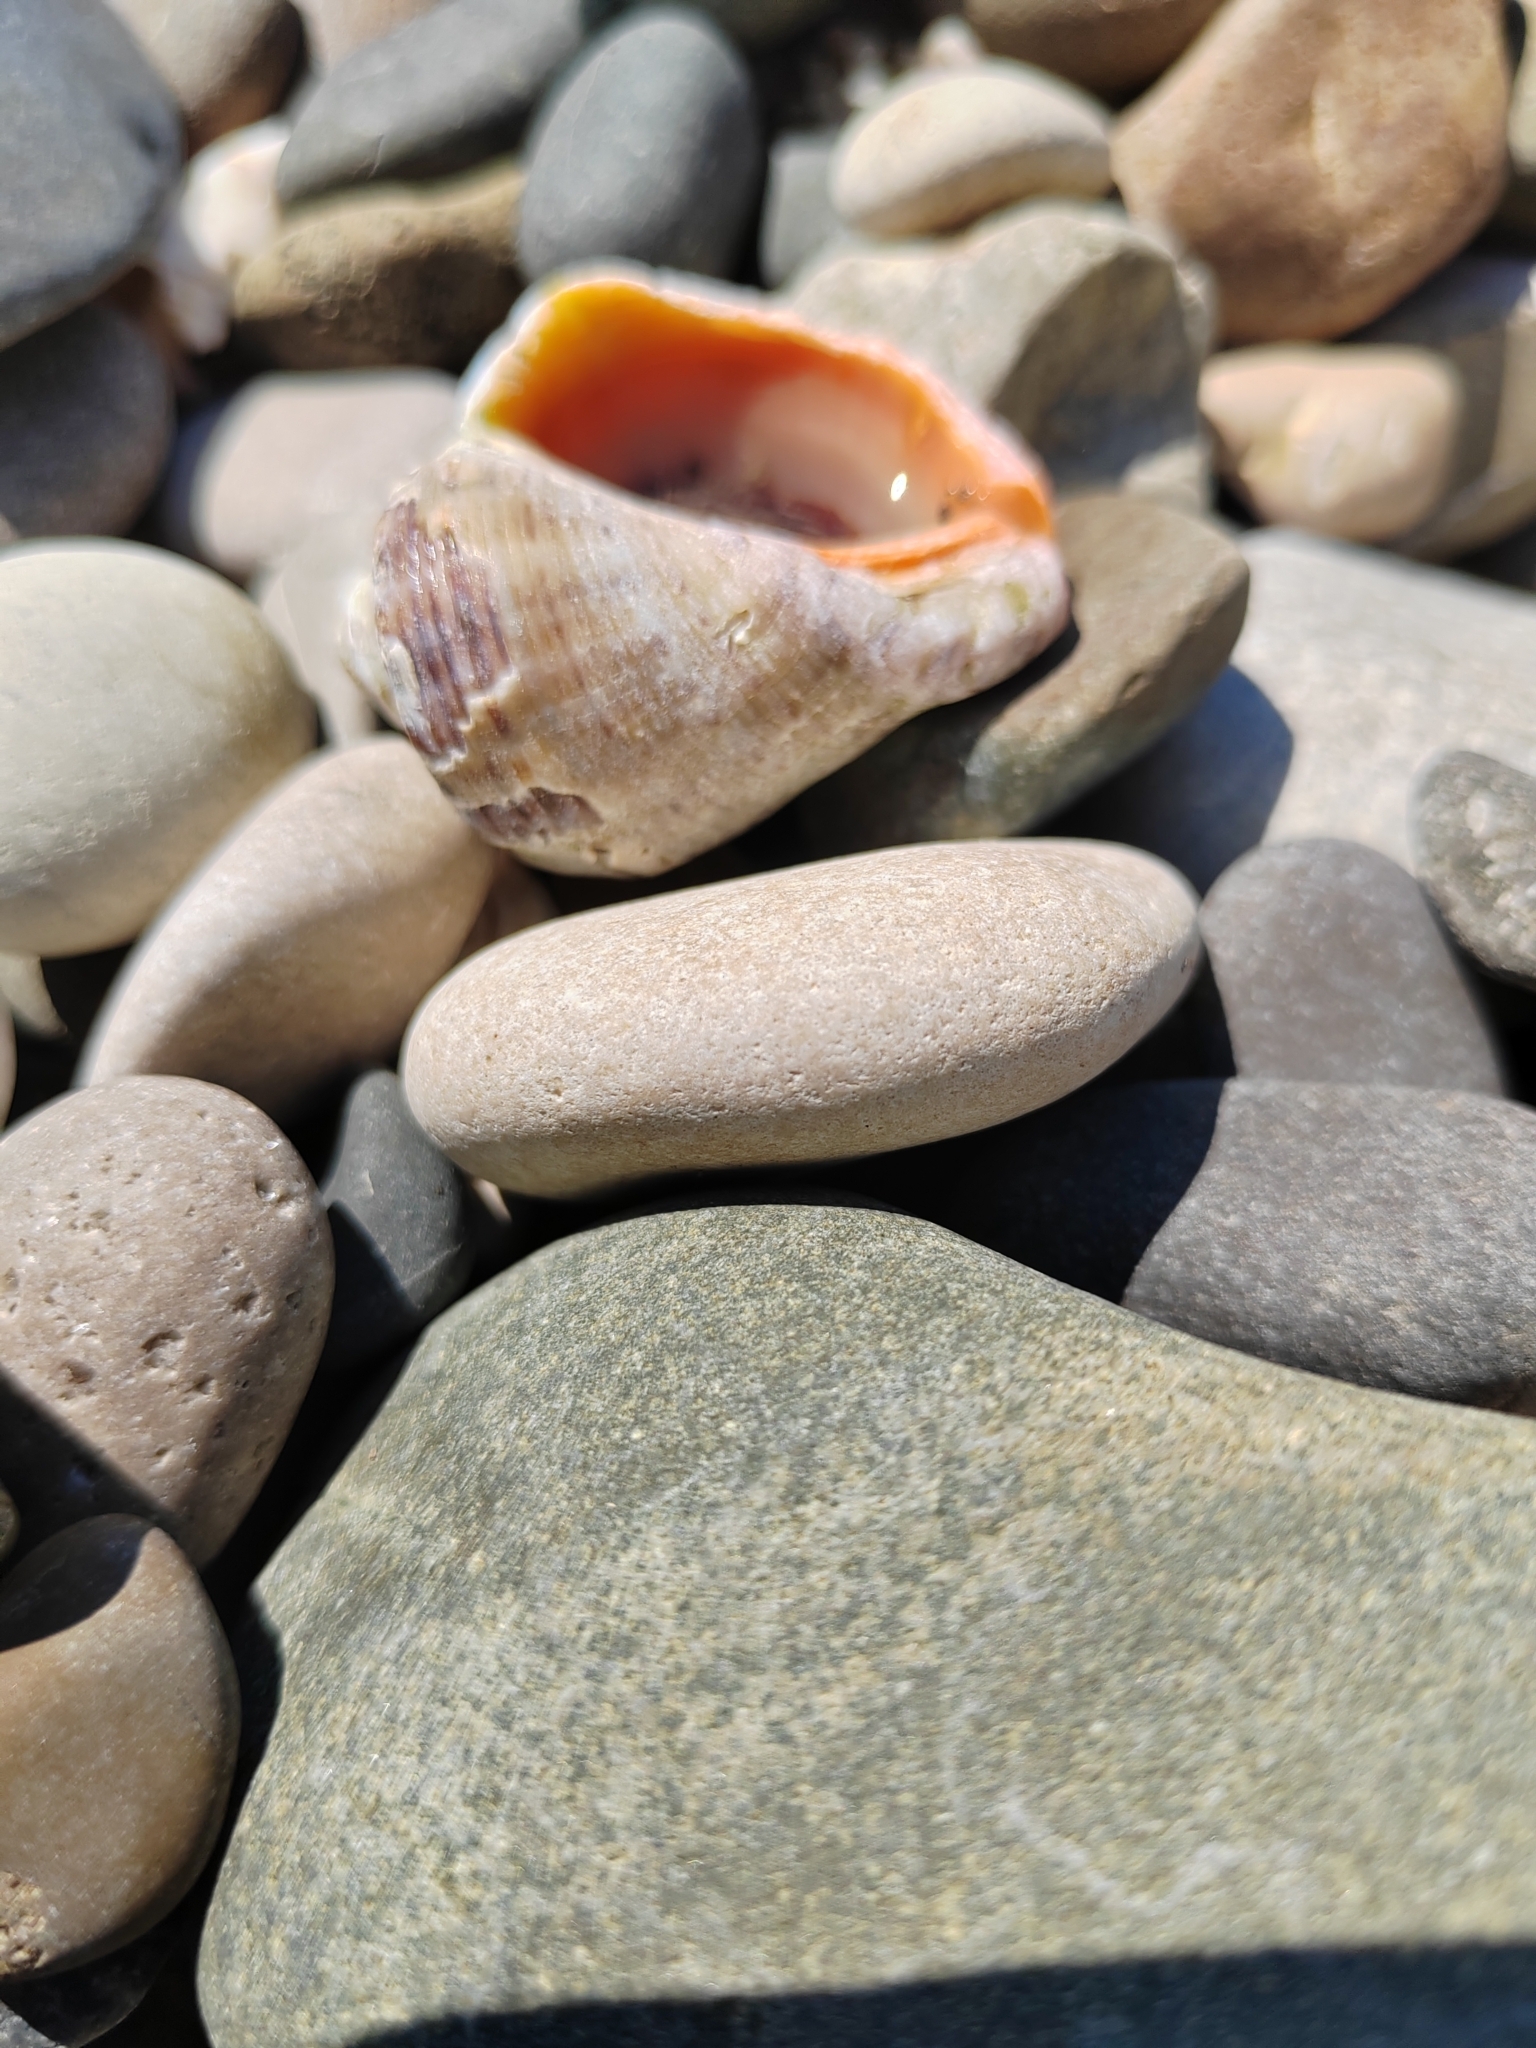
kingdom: Animalia
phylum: Mollusca
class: Gastropoda
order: Neogastropoda
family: Muricidae
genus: Rapana
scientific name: Rapana venosa
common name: Veined rapa whelk
